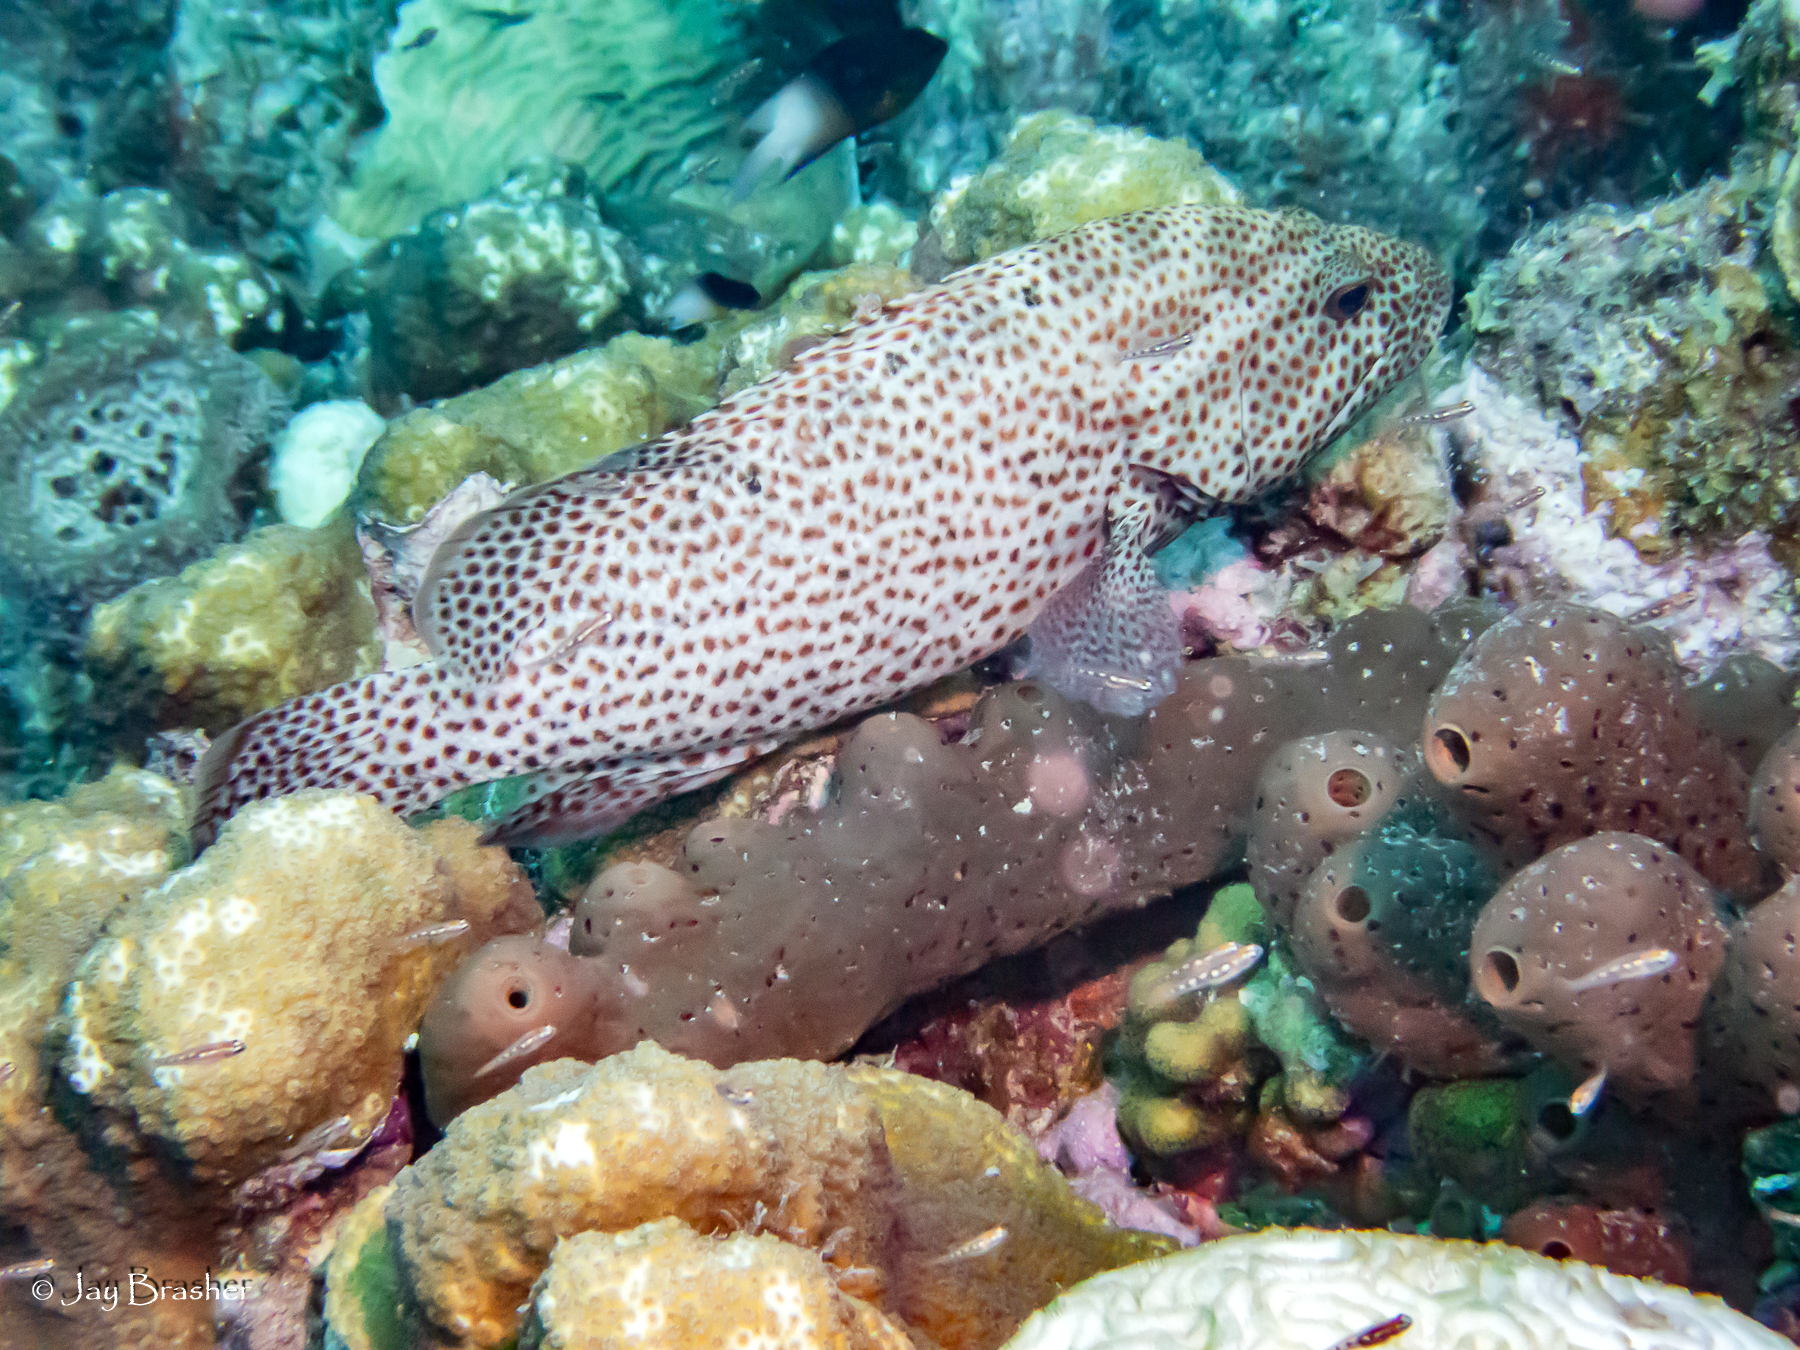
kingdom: Animalia
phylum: Chordata
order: Perciformes
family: Serranidae
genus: Cephalopholis
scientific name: Cephalopholis cruentata
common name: Graysby
